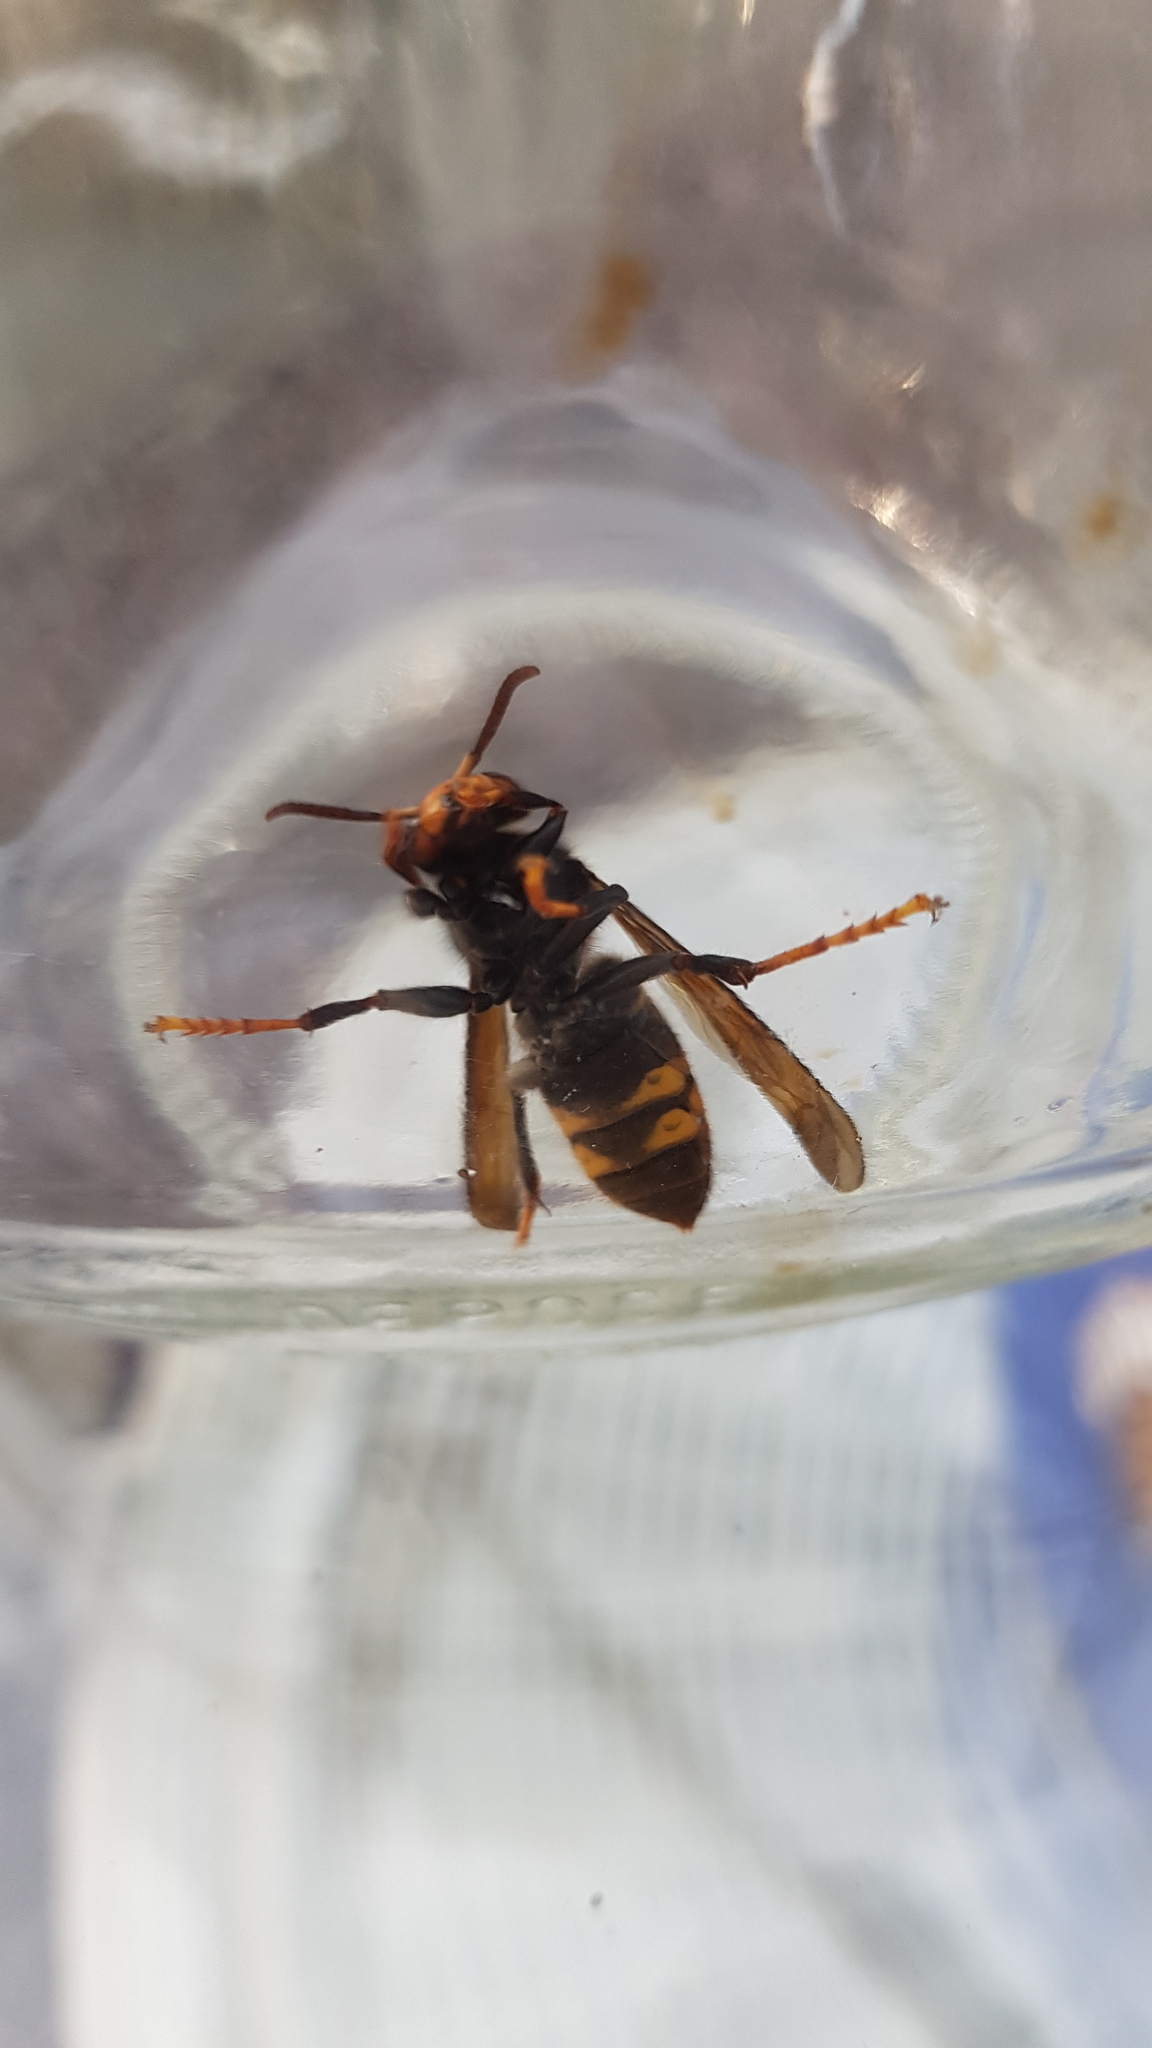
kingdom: Animalia
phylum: Arthropoda
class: Insecta
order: Hymenoptera
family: Vespidae
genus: Vespa
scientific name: Vespa velutina
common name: Asian hornet
